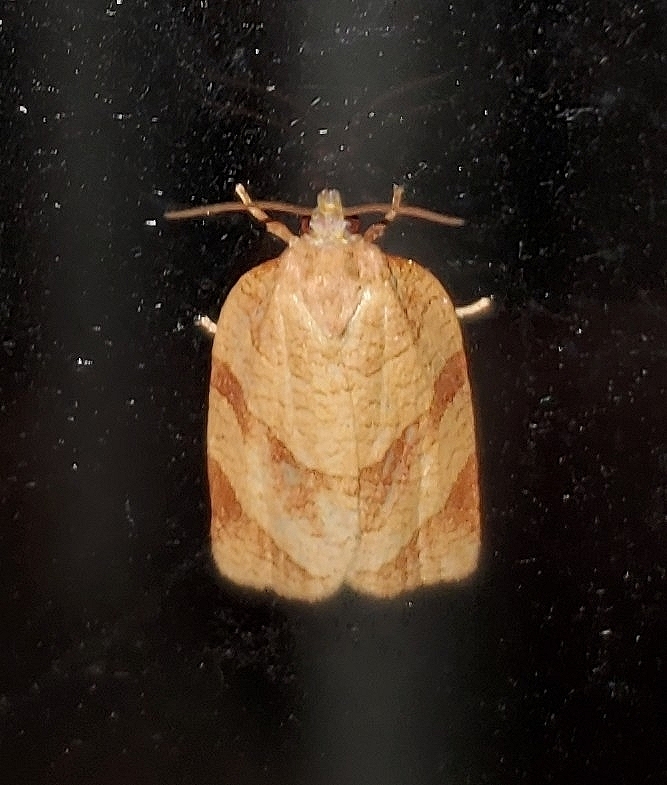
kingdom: Animalia
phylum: Arthropoda
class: Insecta
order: Lepidoptera
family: Tortricidae
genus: Choristoneura
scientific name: Choristoneura parallela
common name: Parallel-banded leafroller moth
